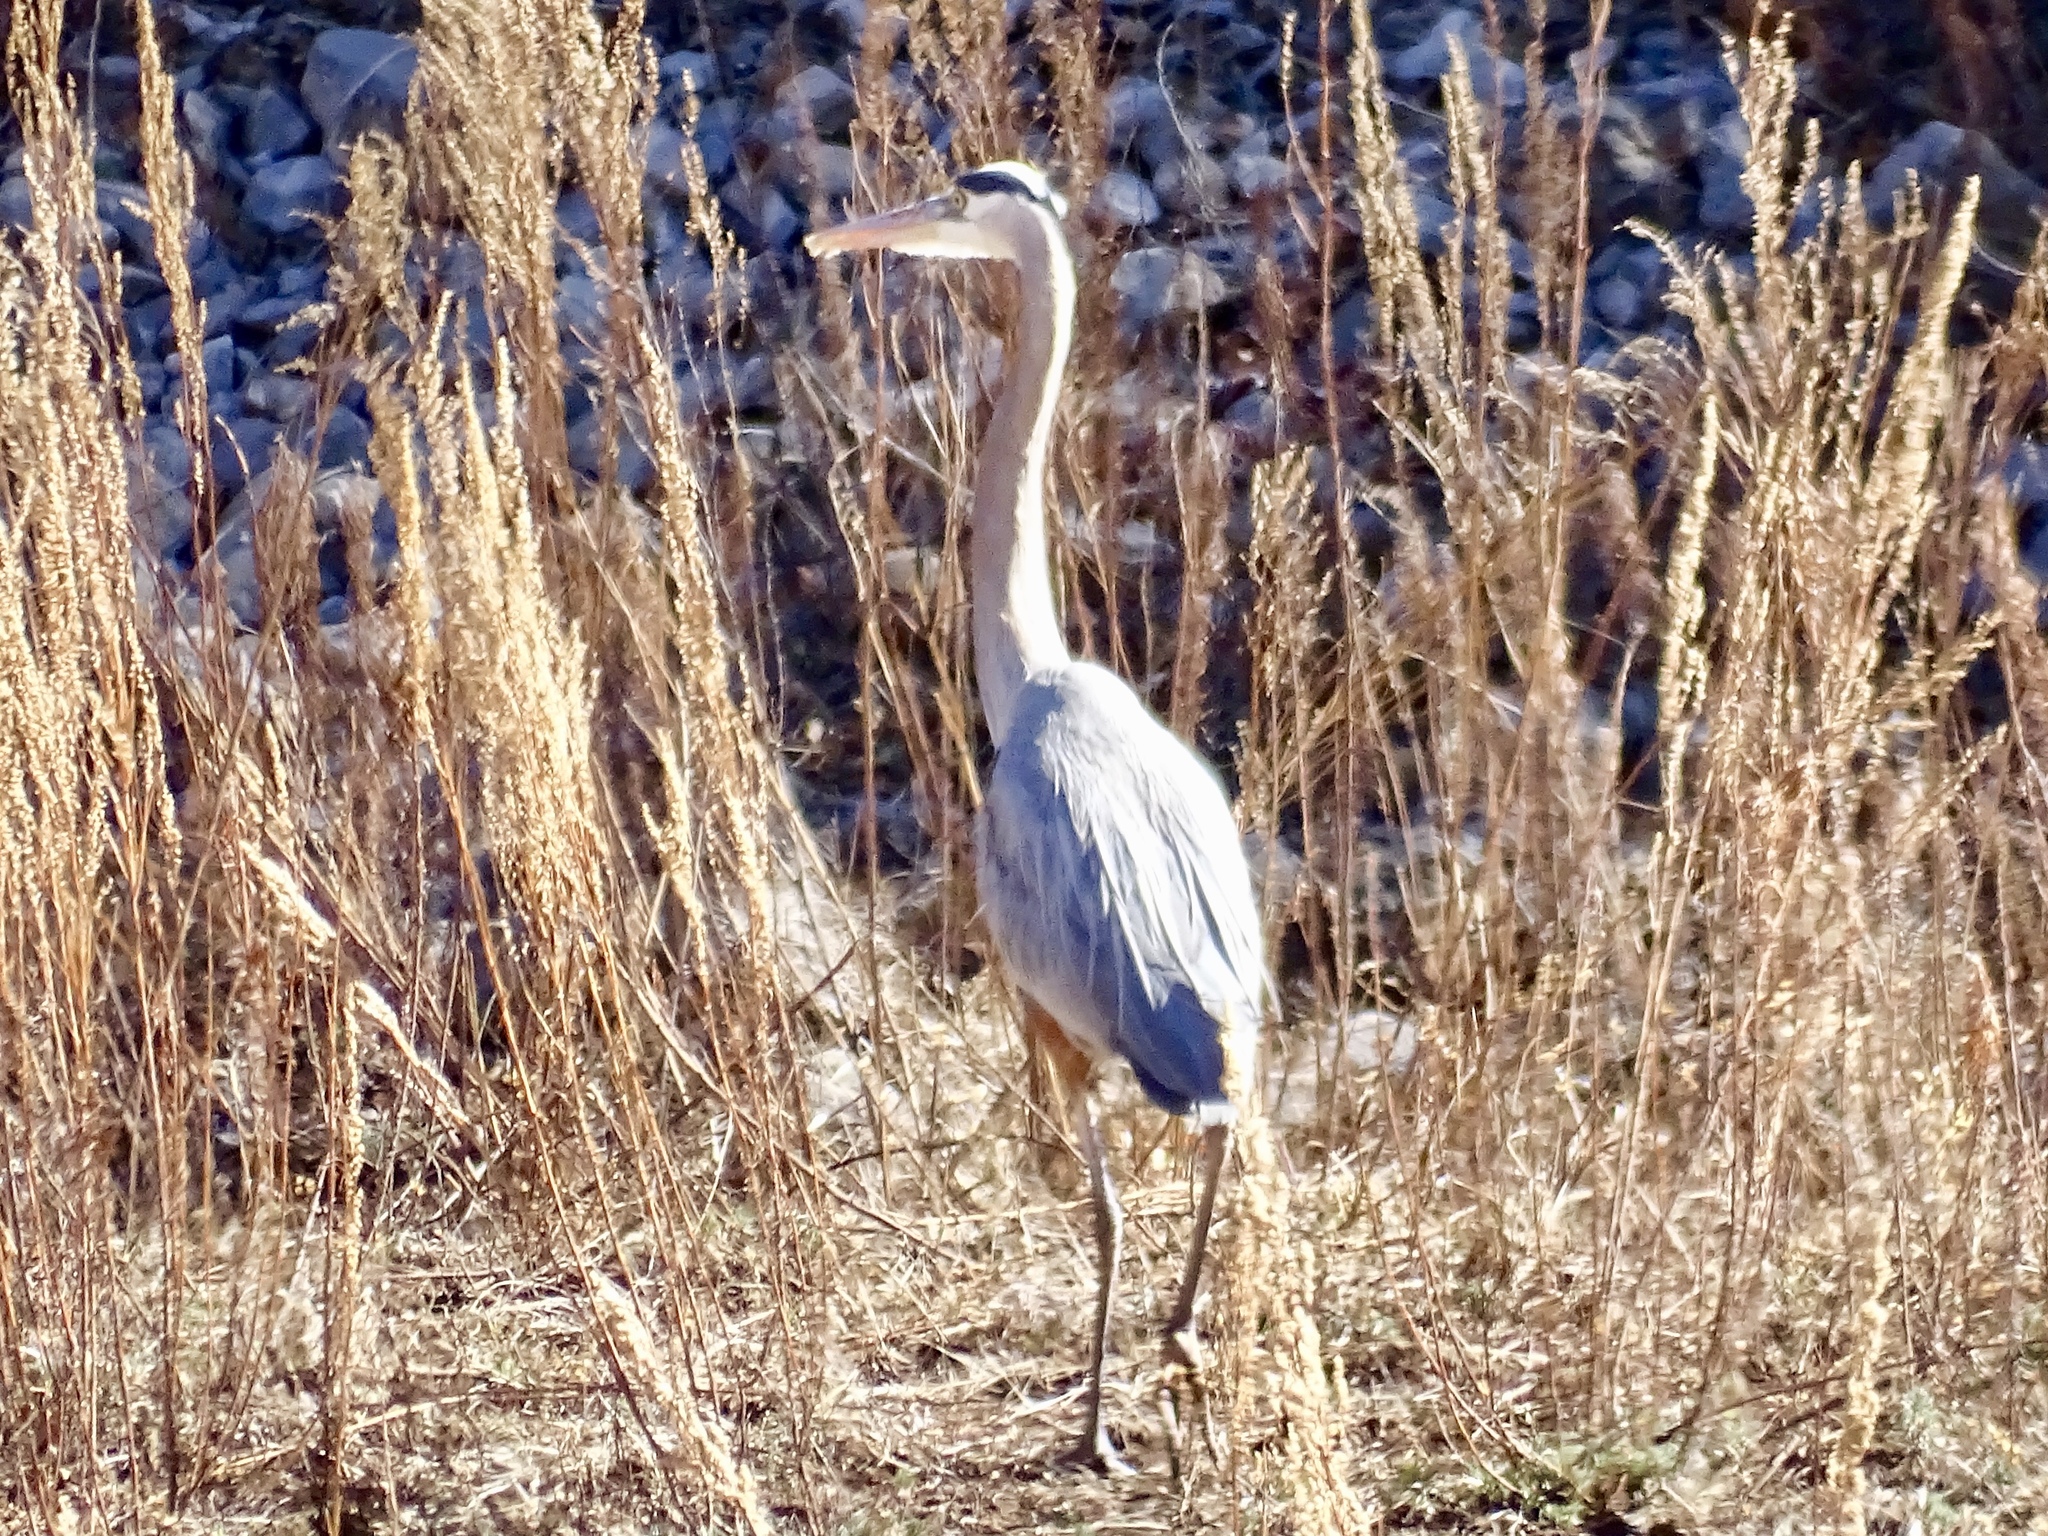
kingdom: Animalia
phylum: Chordata
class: Aves
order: Pelecaniformes
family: Ardeidae
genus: Ardea
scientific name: Ardea herodias
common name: Great blue heron
